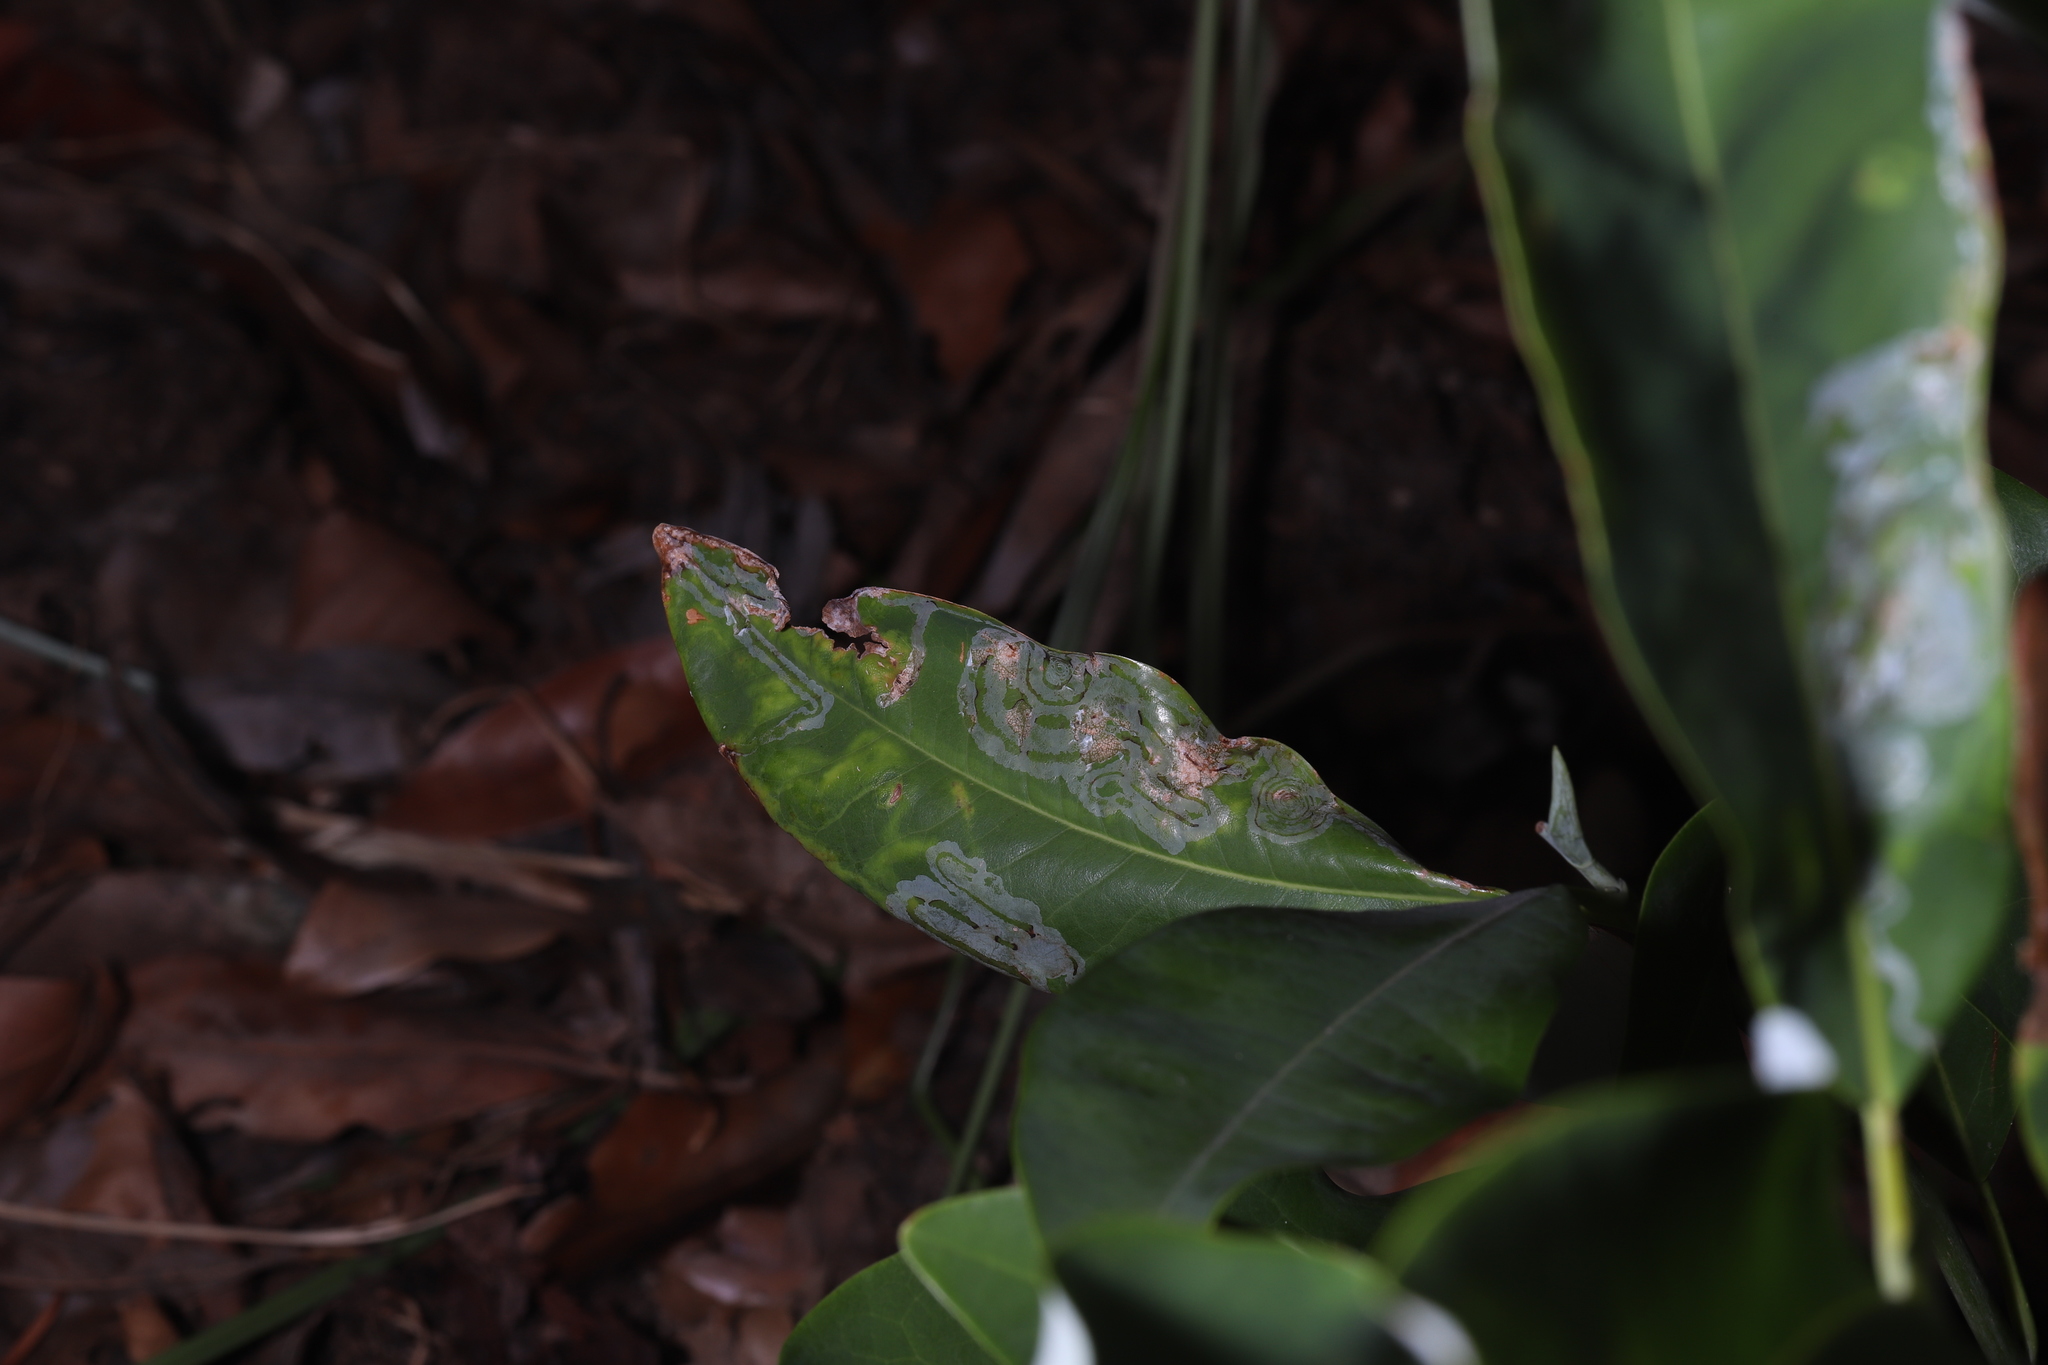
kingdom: Animalia
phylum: Arthropoda
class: Insecta
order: Lepidoptera
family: Gracillariidae
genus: Phyllocnistis
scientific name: Phyllocnistis liriodendronella
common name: Tulip tree leaf miner
